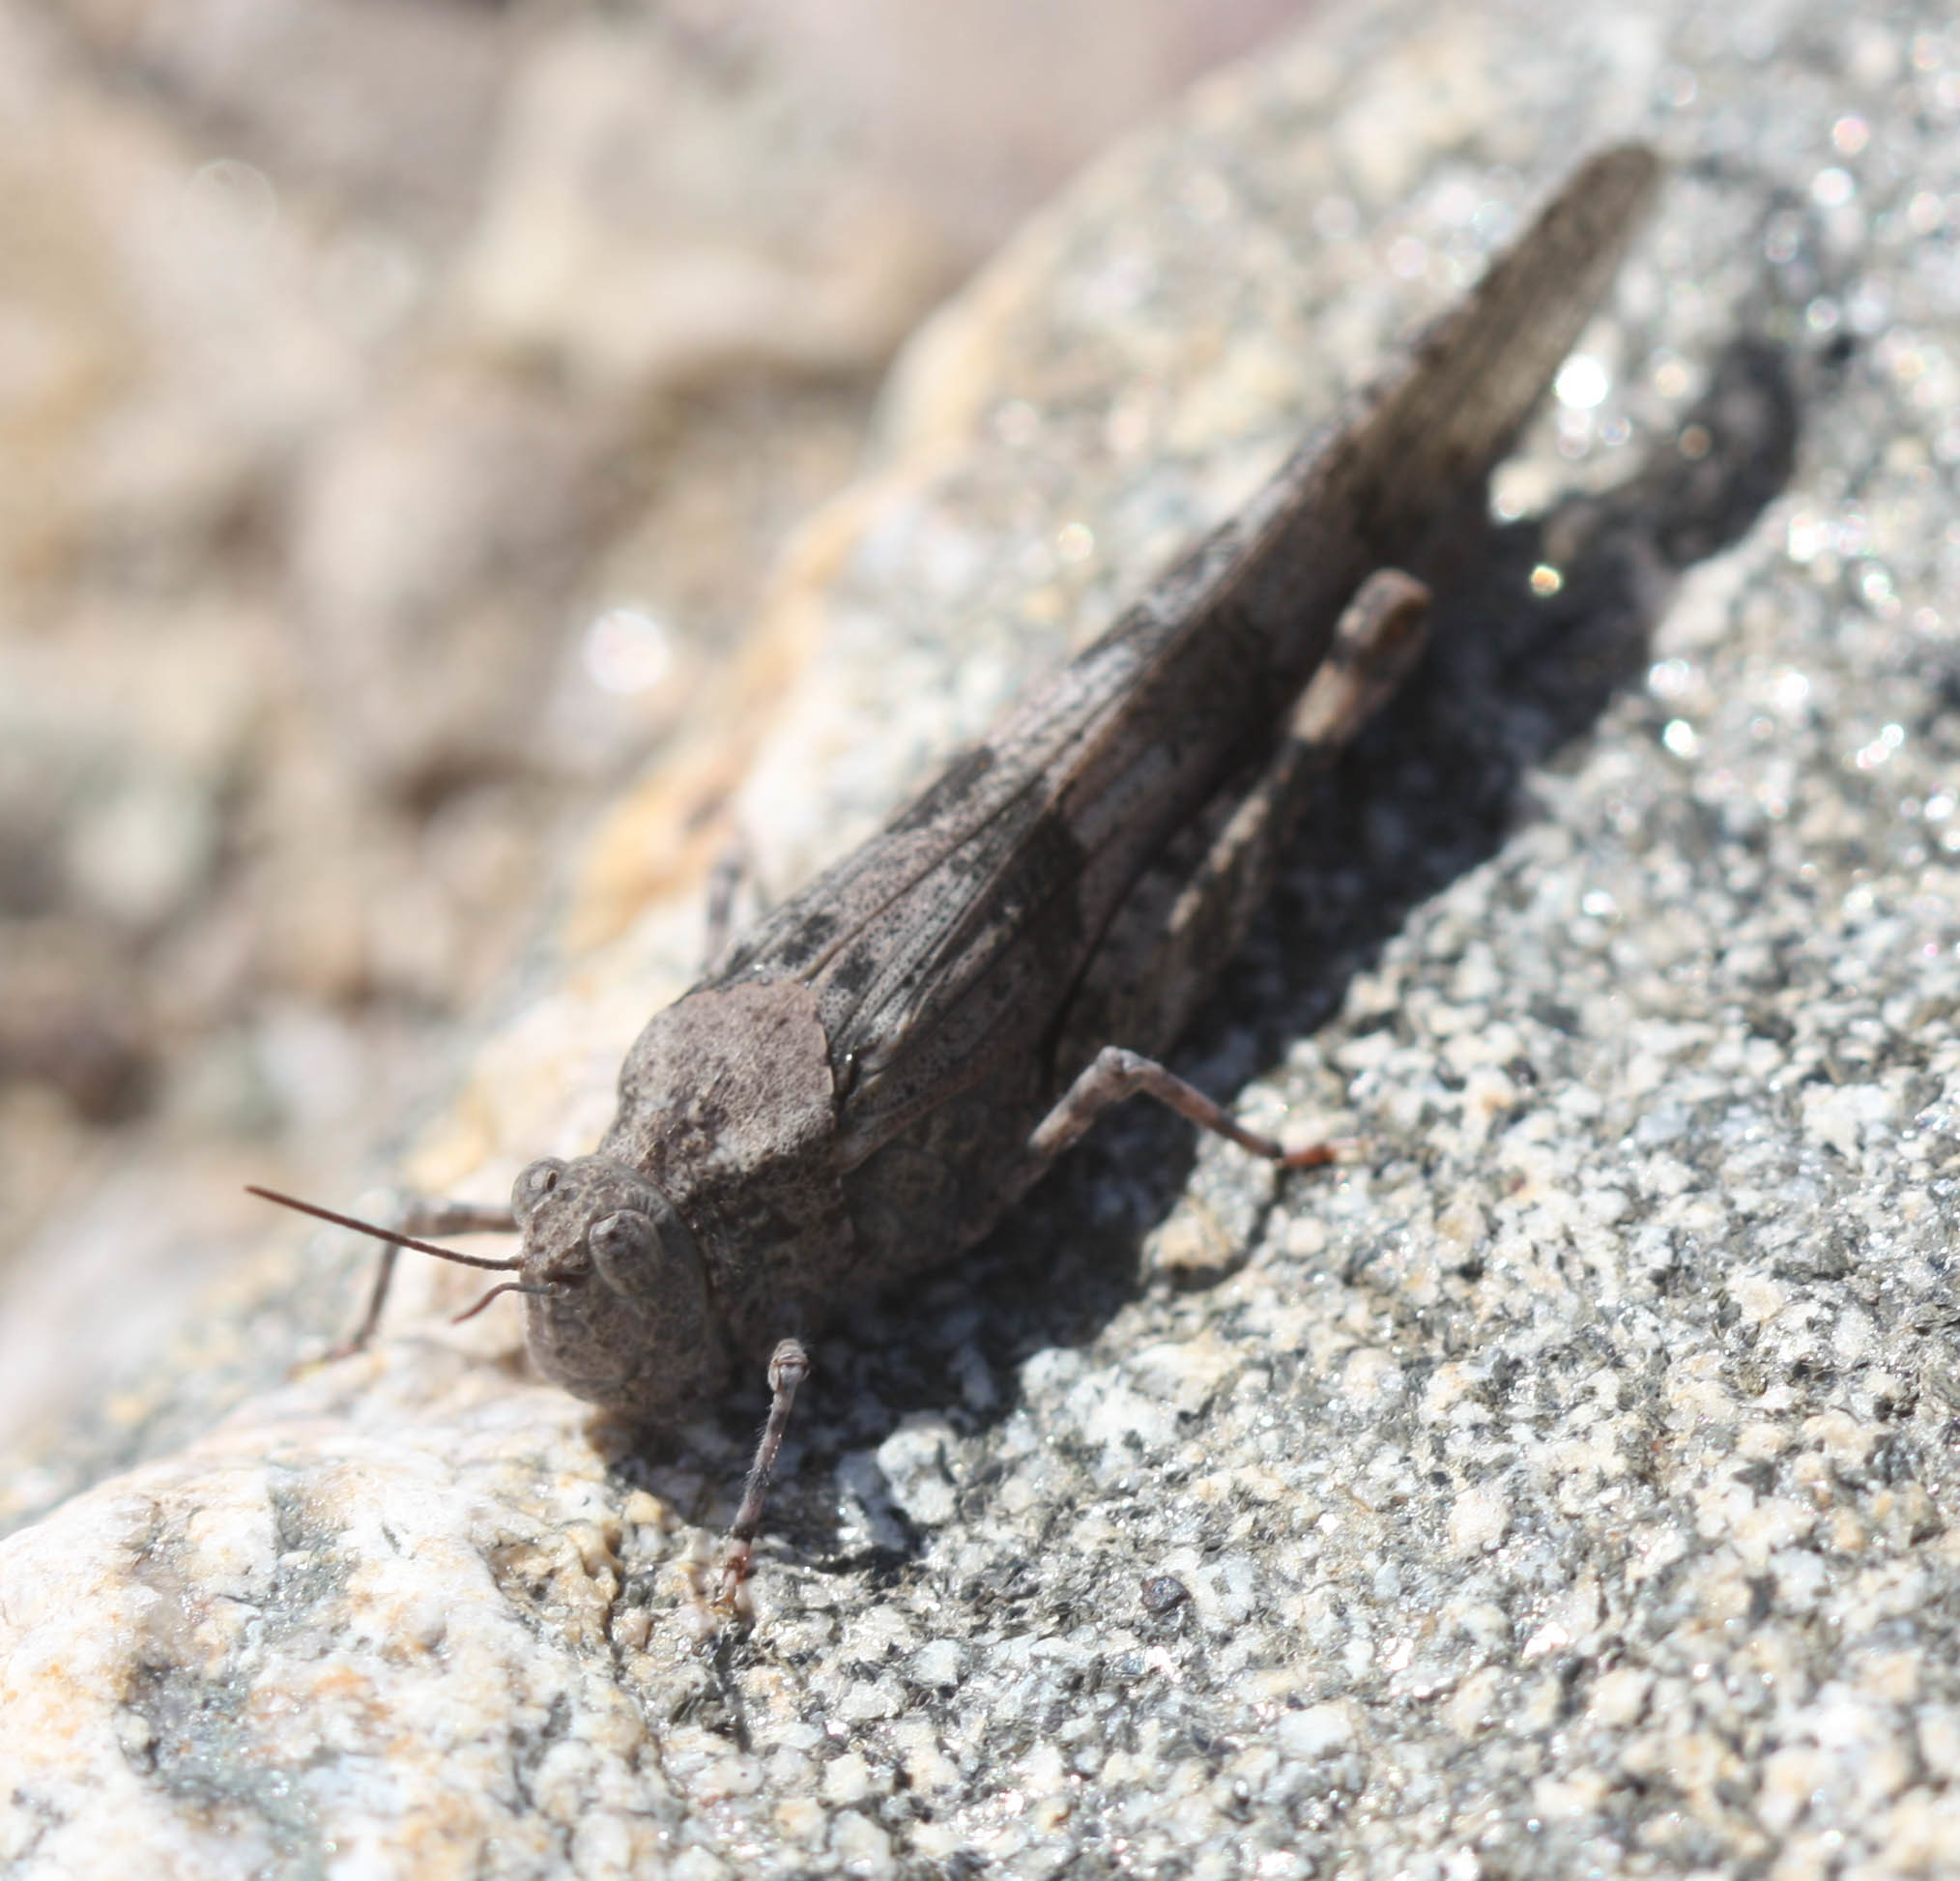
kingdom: Animalia
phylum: Arthropoda
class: Insecta
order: Orthoptera
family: Acrididae
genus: Trimerotropis
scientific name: Trimerotropis pallidipennis
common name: Pallid-winged grasshopper
